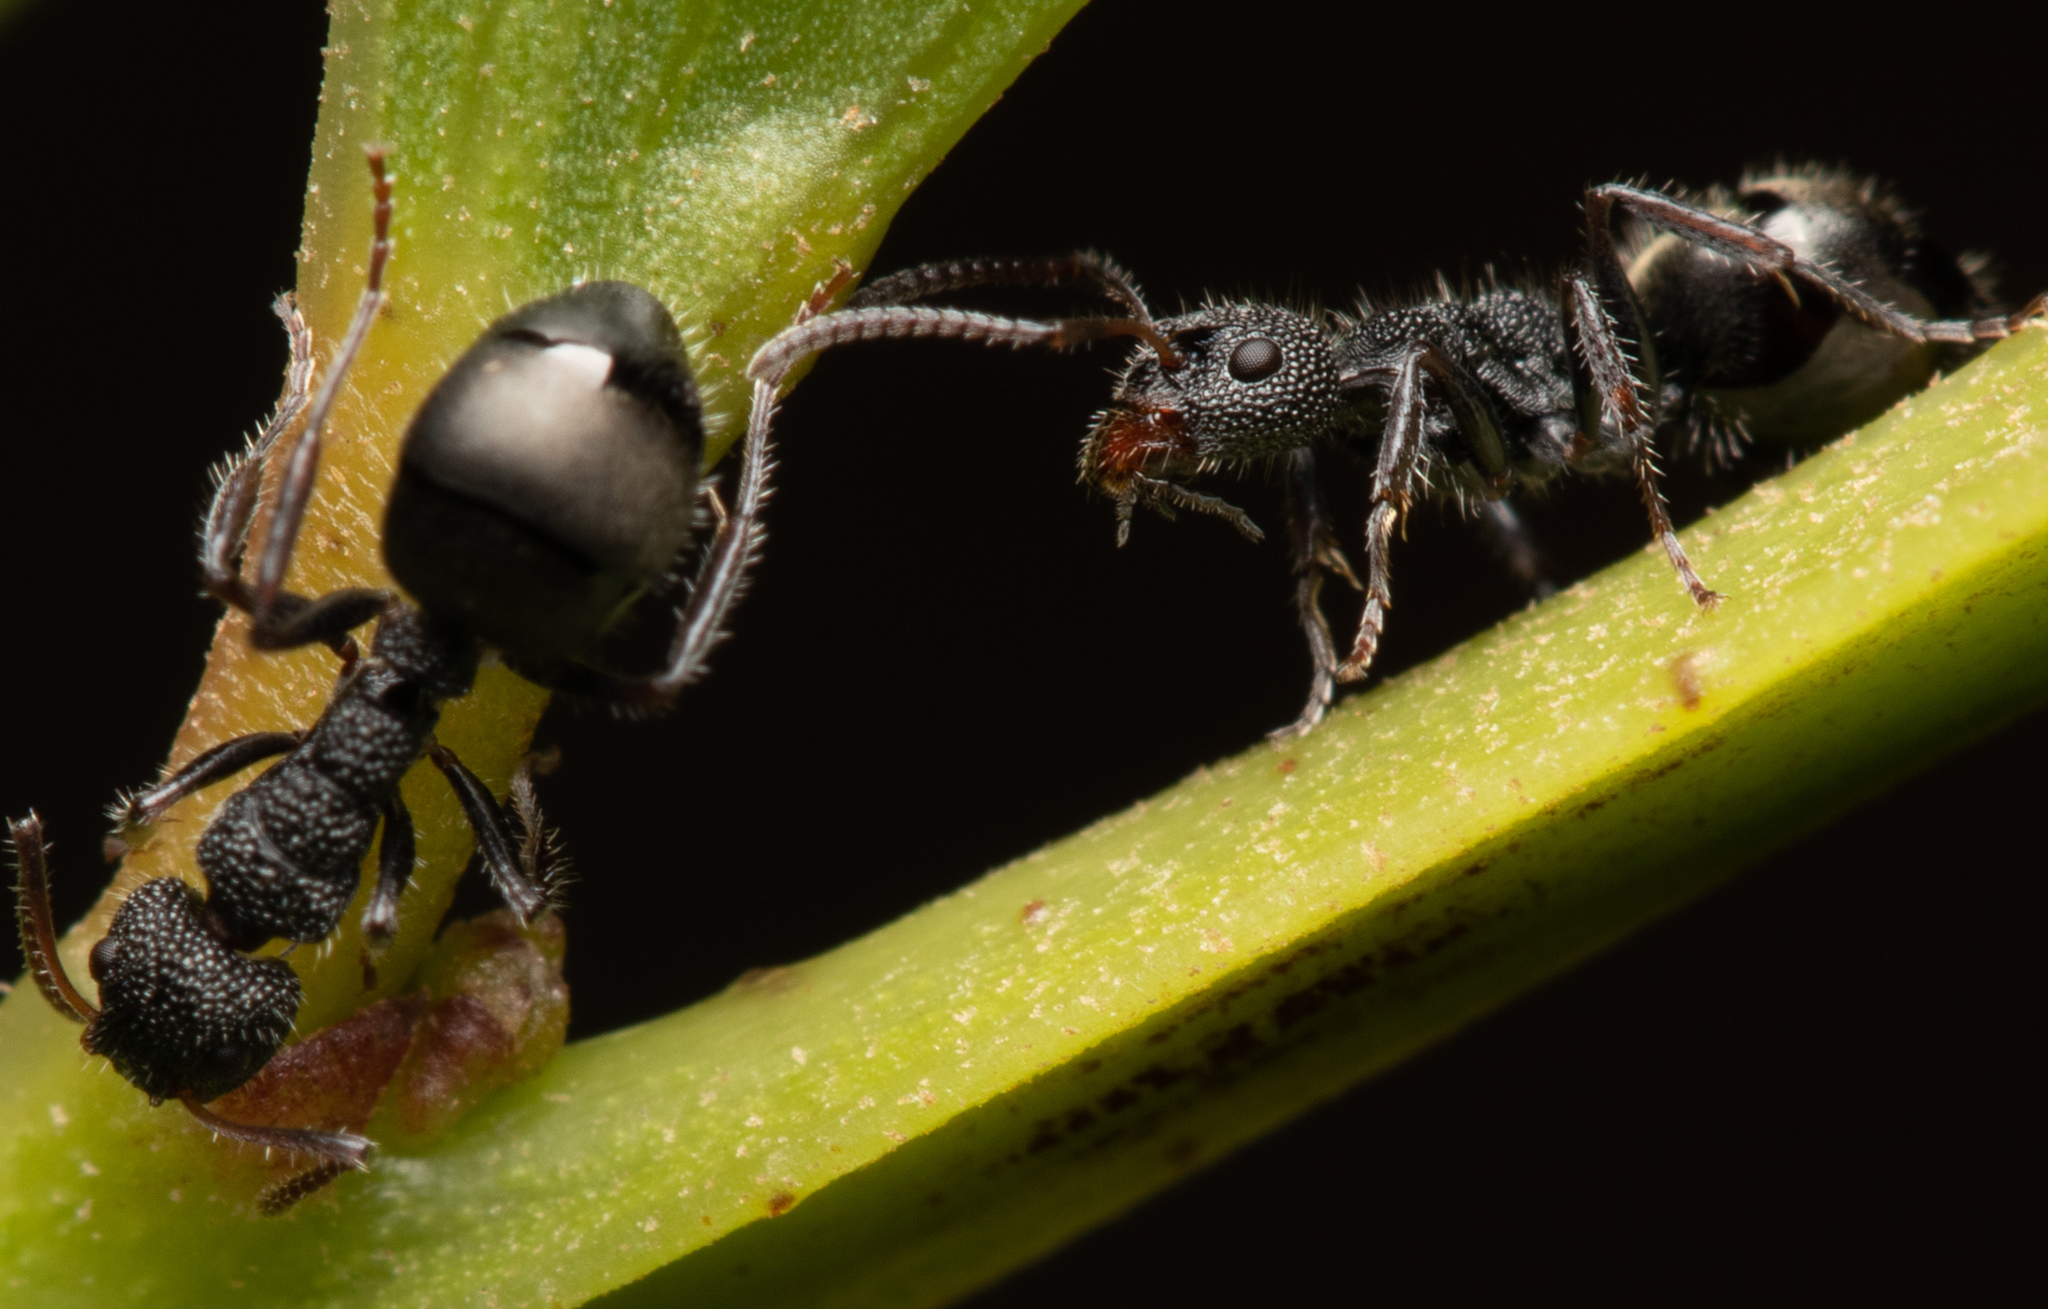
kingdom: Animalia
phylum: Arthropoda
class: Insecta
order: Hymenoptera
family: Formicidae
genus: Dolichoderus
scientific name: Dolichoderus scrobiculatus
